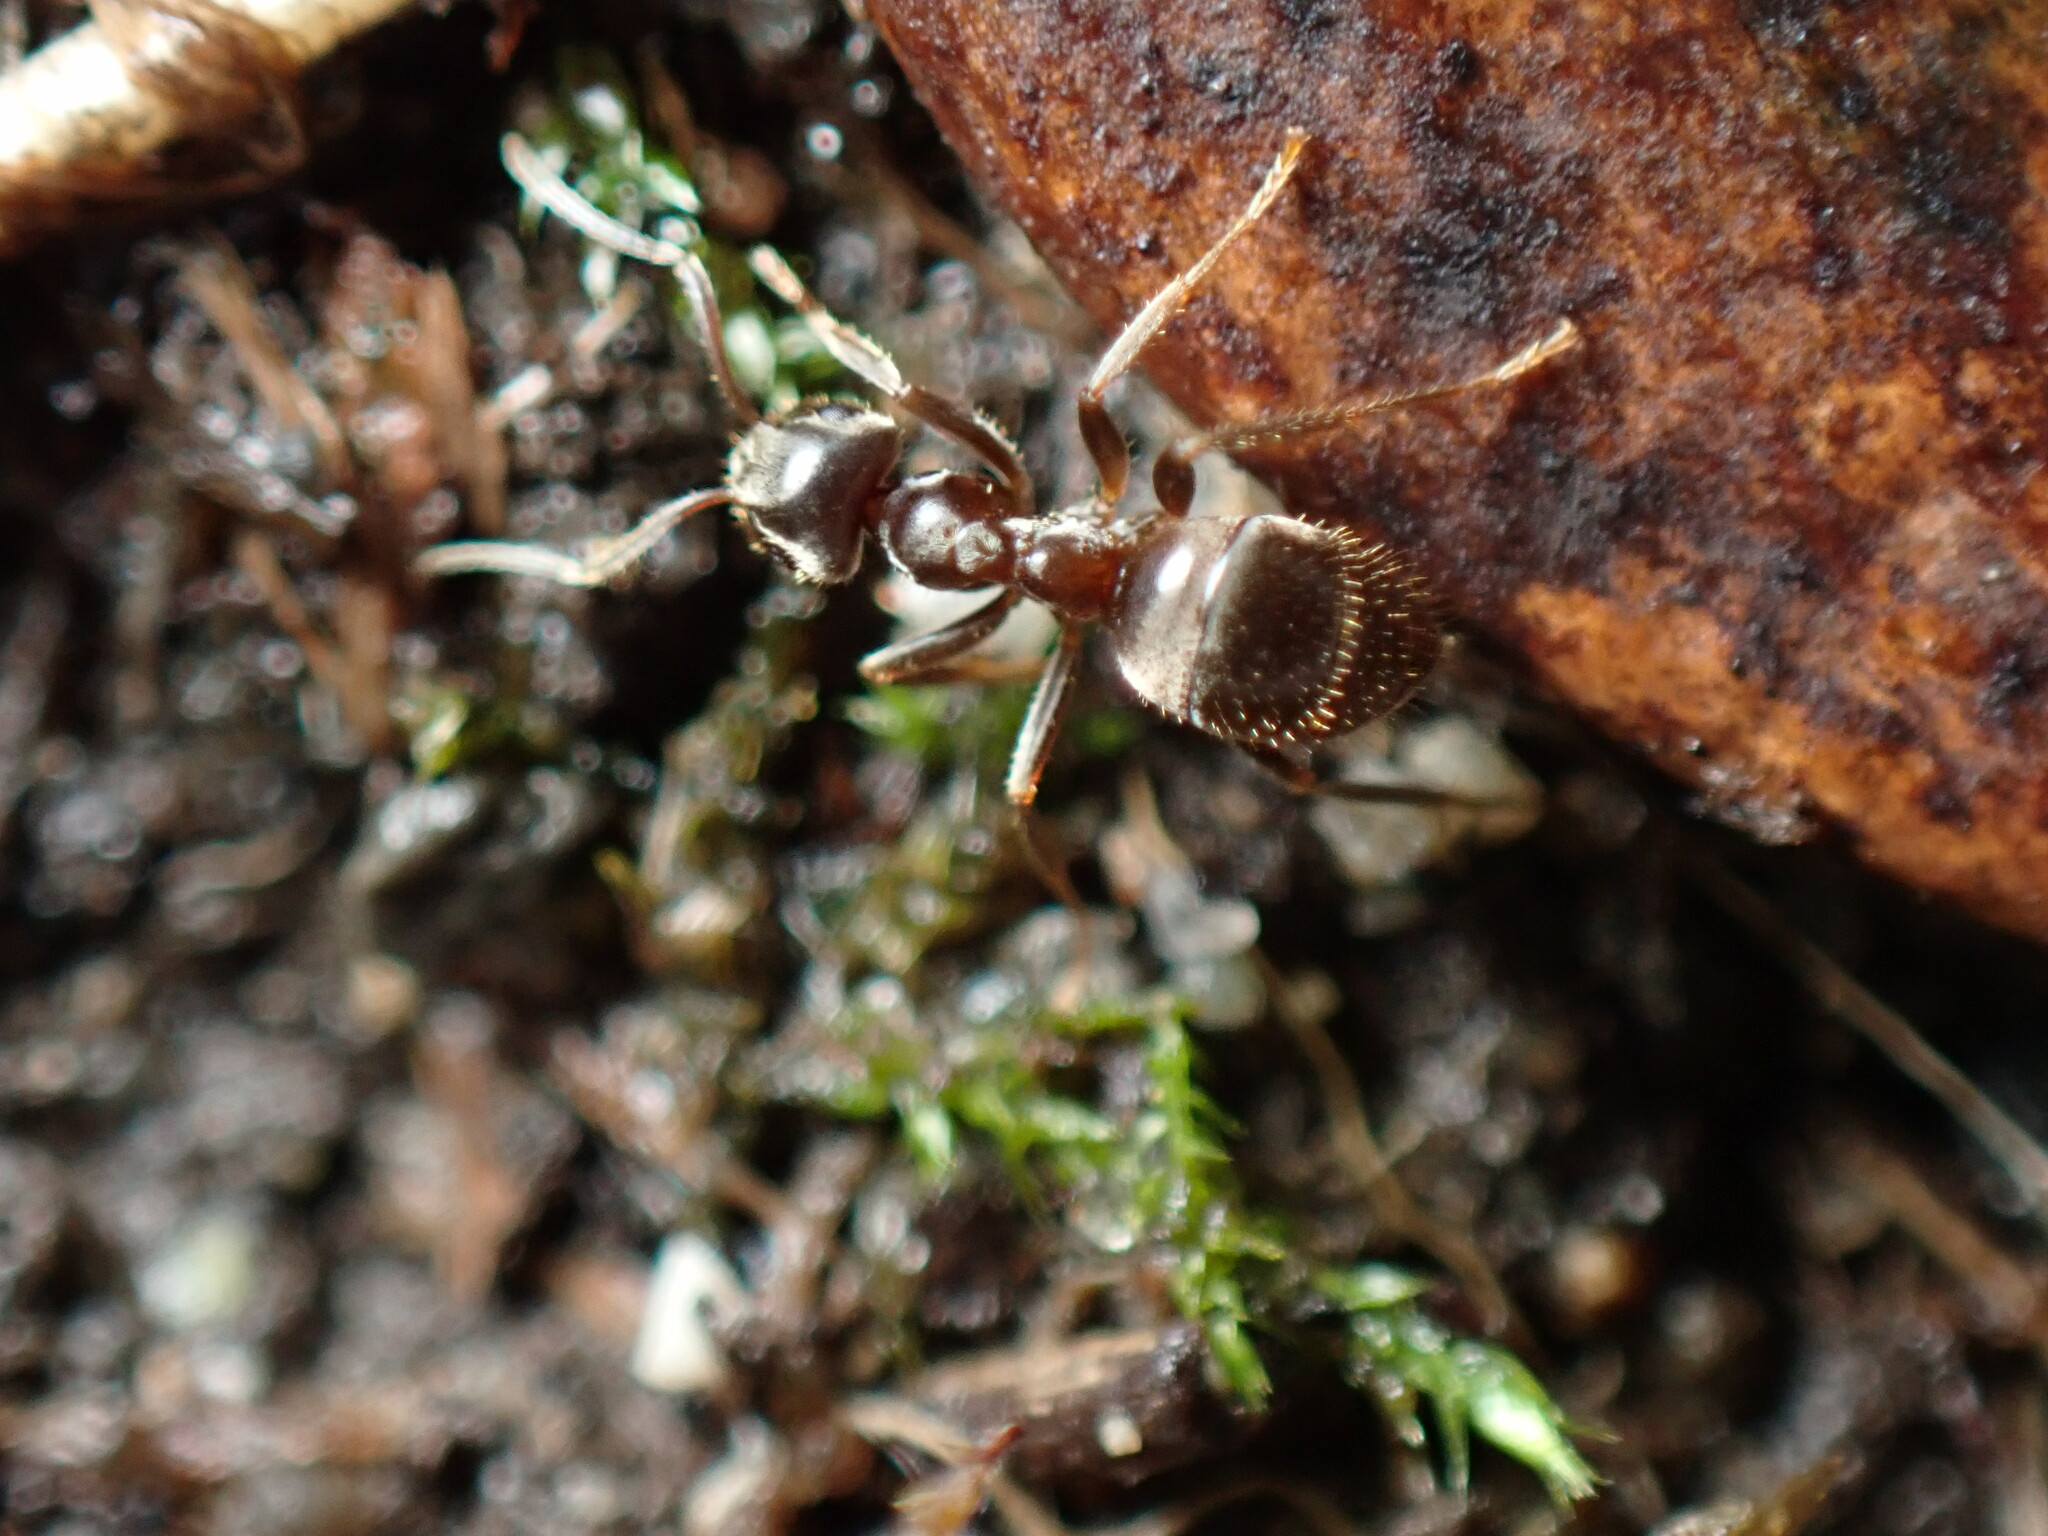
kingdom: Animalia
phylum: Arthropoda
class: Insecta
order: Hymenoptera
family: Formicidae
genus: Lasius
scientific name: Lasius niger
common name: Small black ant
